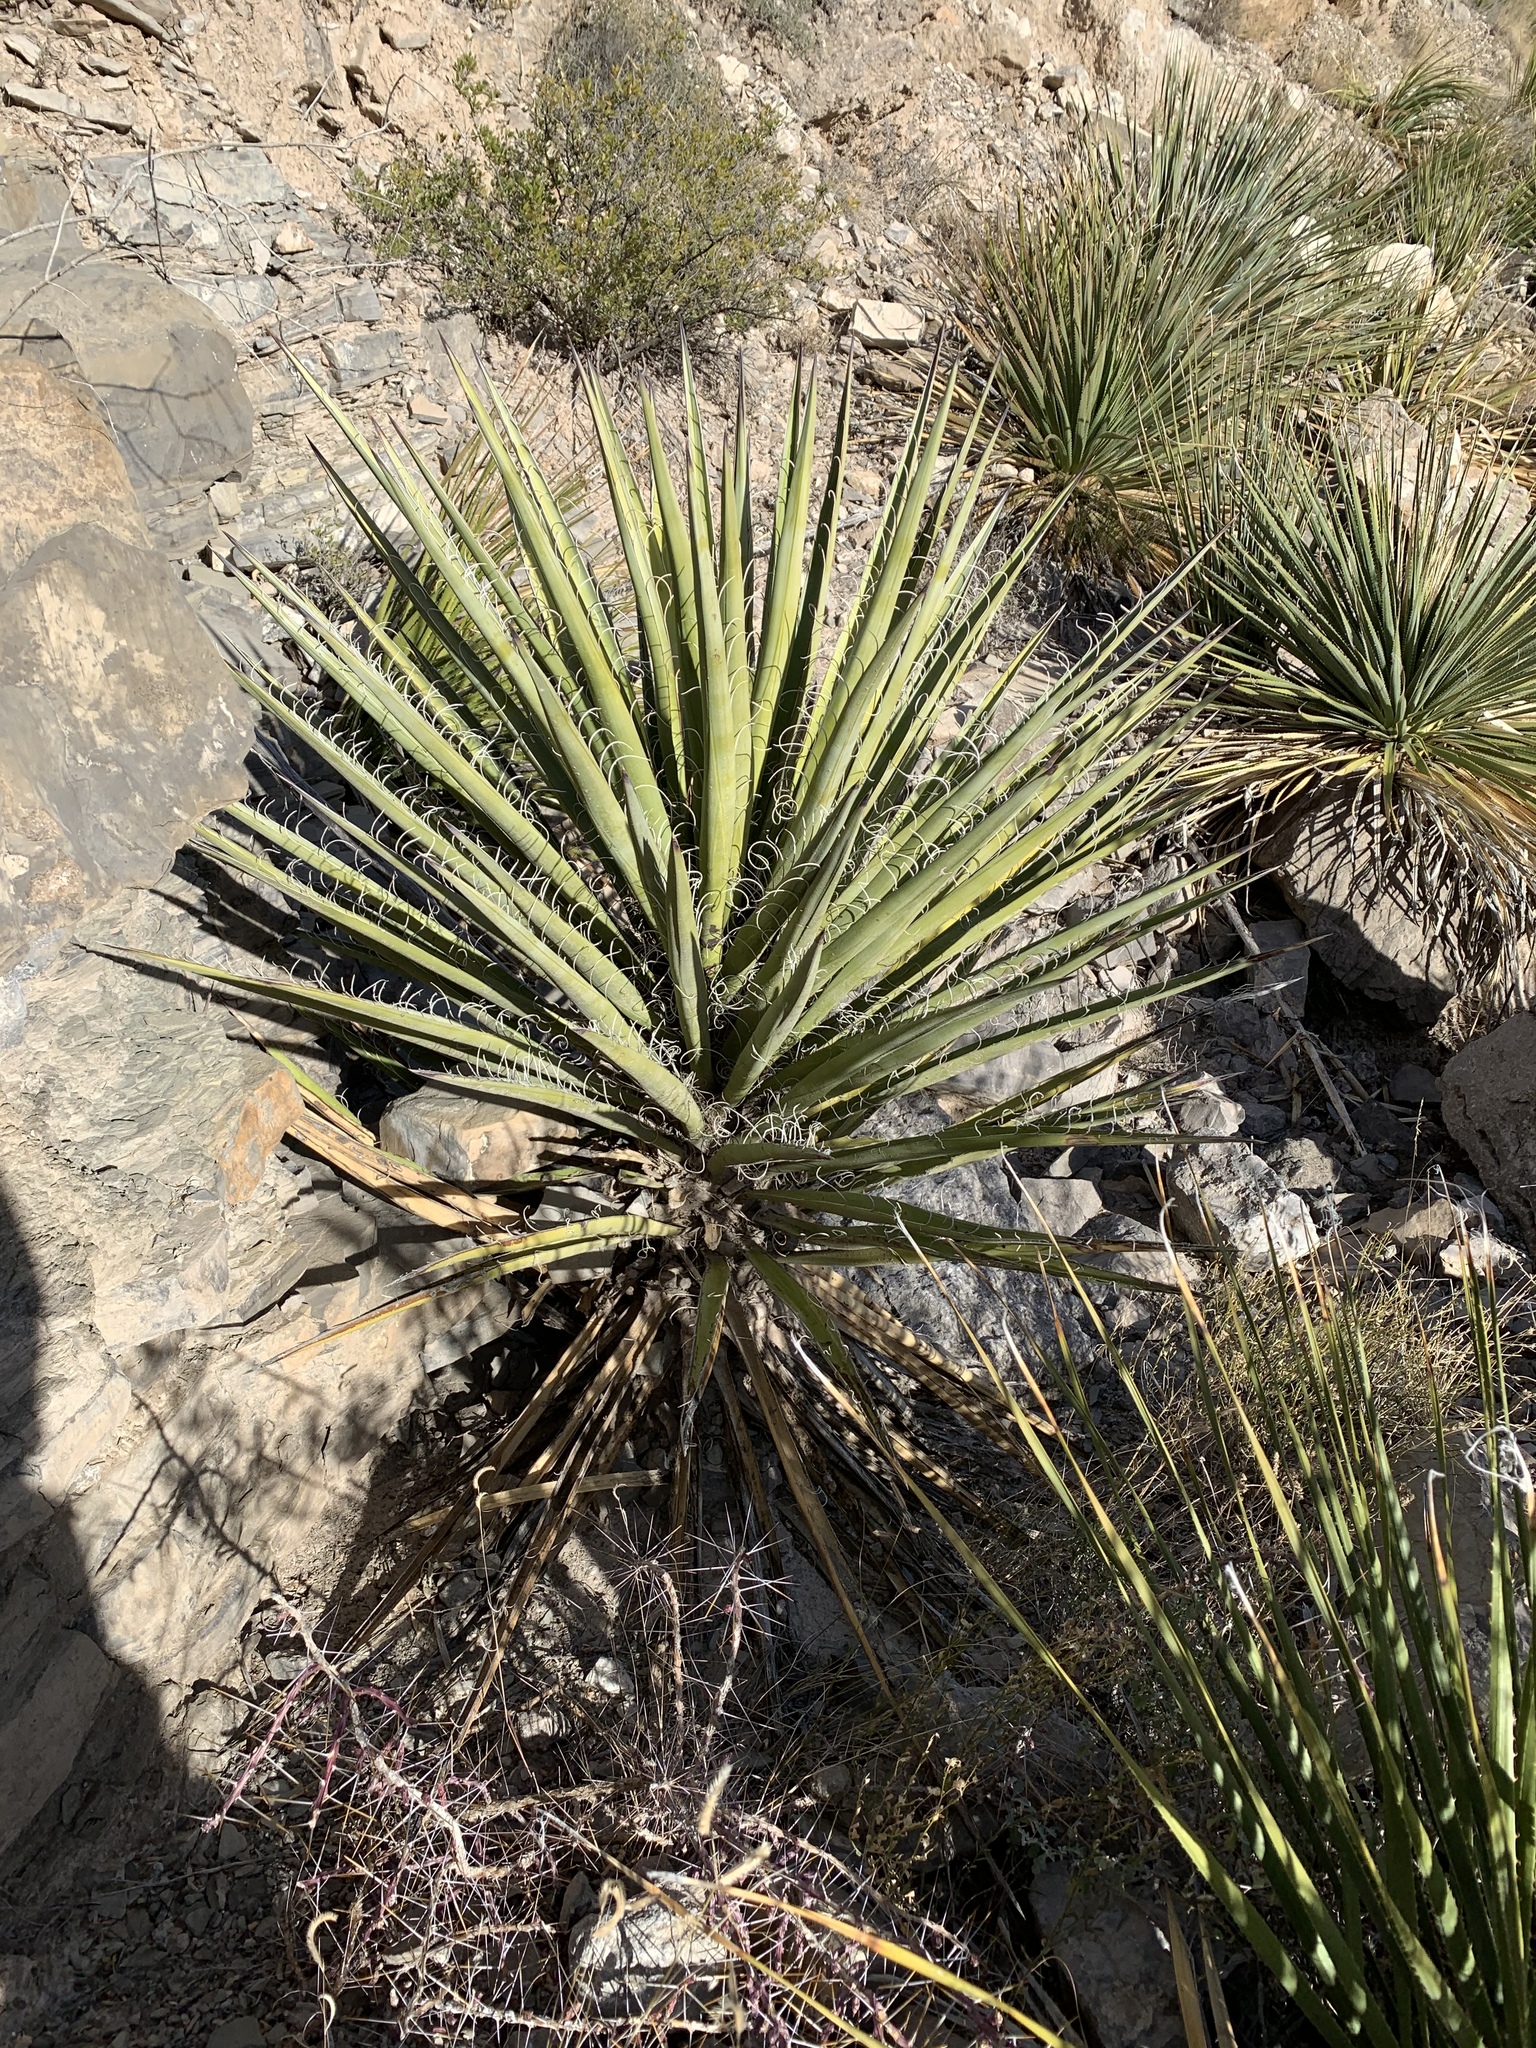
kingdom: Plantae
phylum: Tracheophyta
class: Liliopsida
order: Asparagales
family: Asparagaceae
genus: Yucca
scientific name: Yucca treculiana
